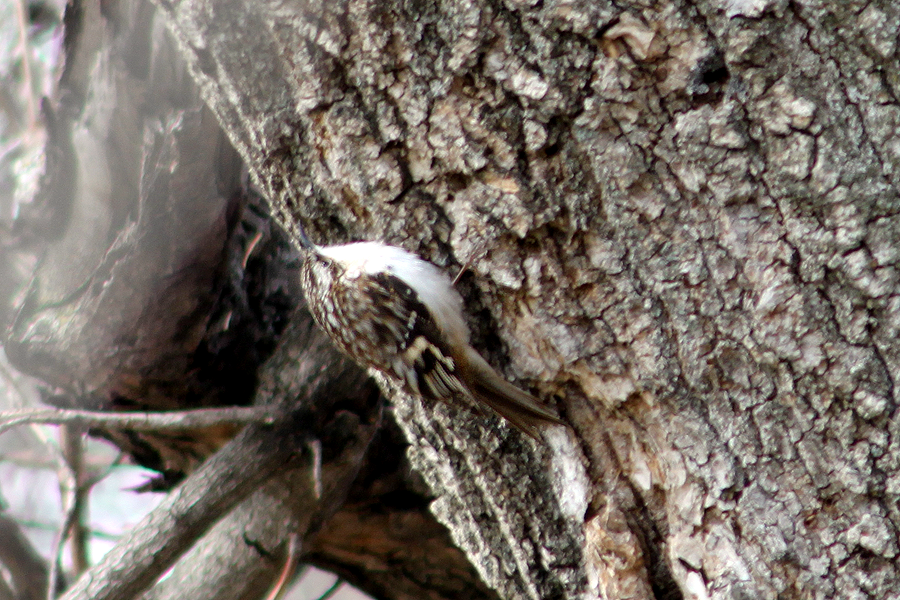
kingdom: Animalia
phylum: Chordata
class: Aves
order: Passeriformes
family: Certhiidae
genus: Certhia
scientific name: Certhia americana
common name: Brown creeper
